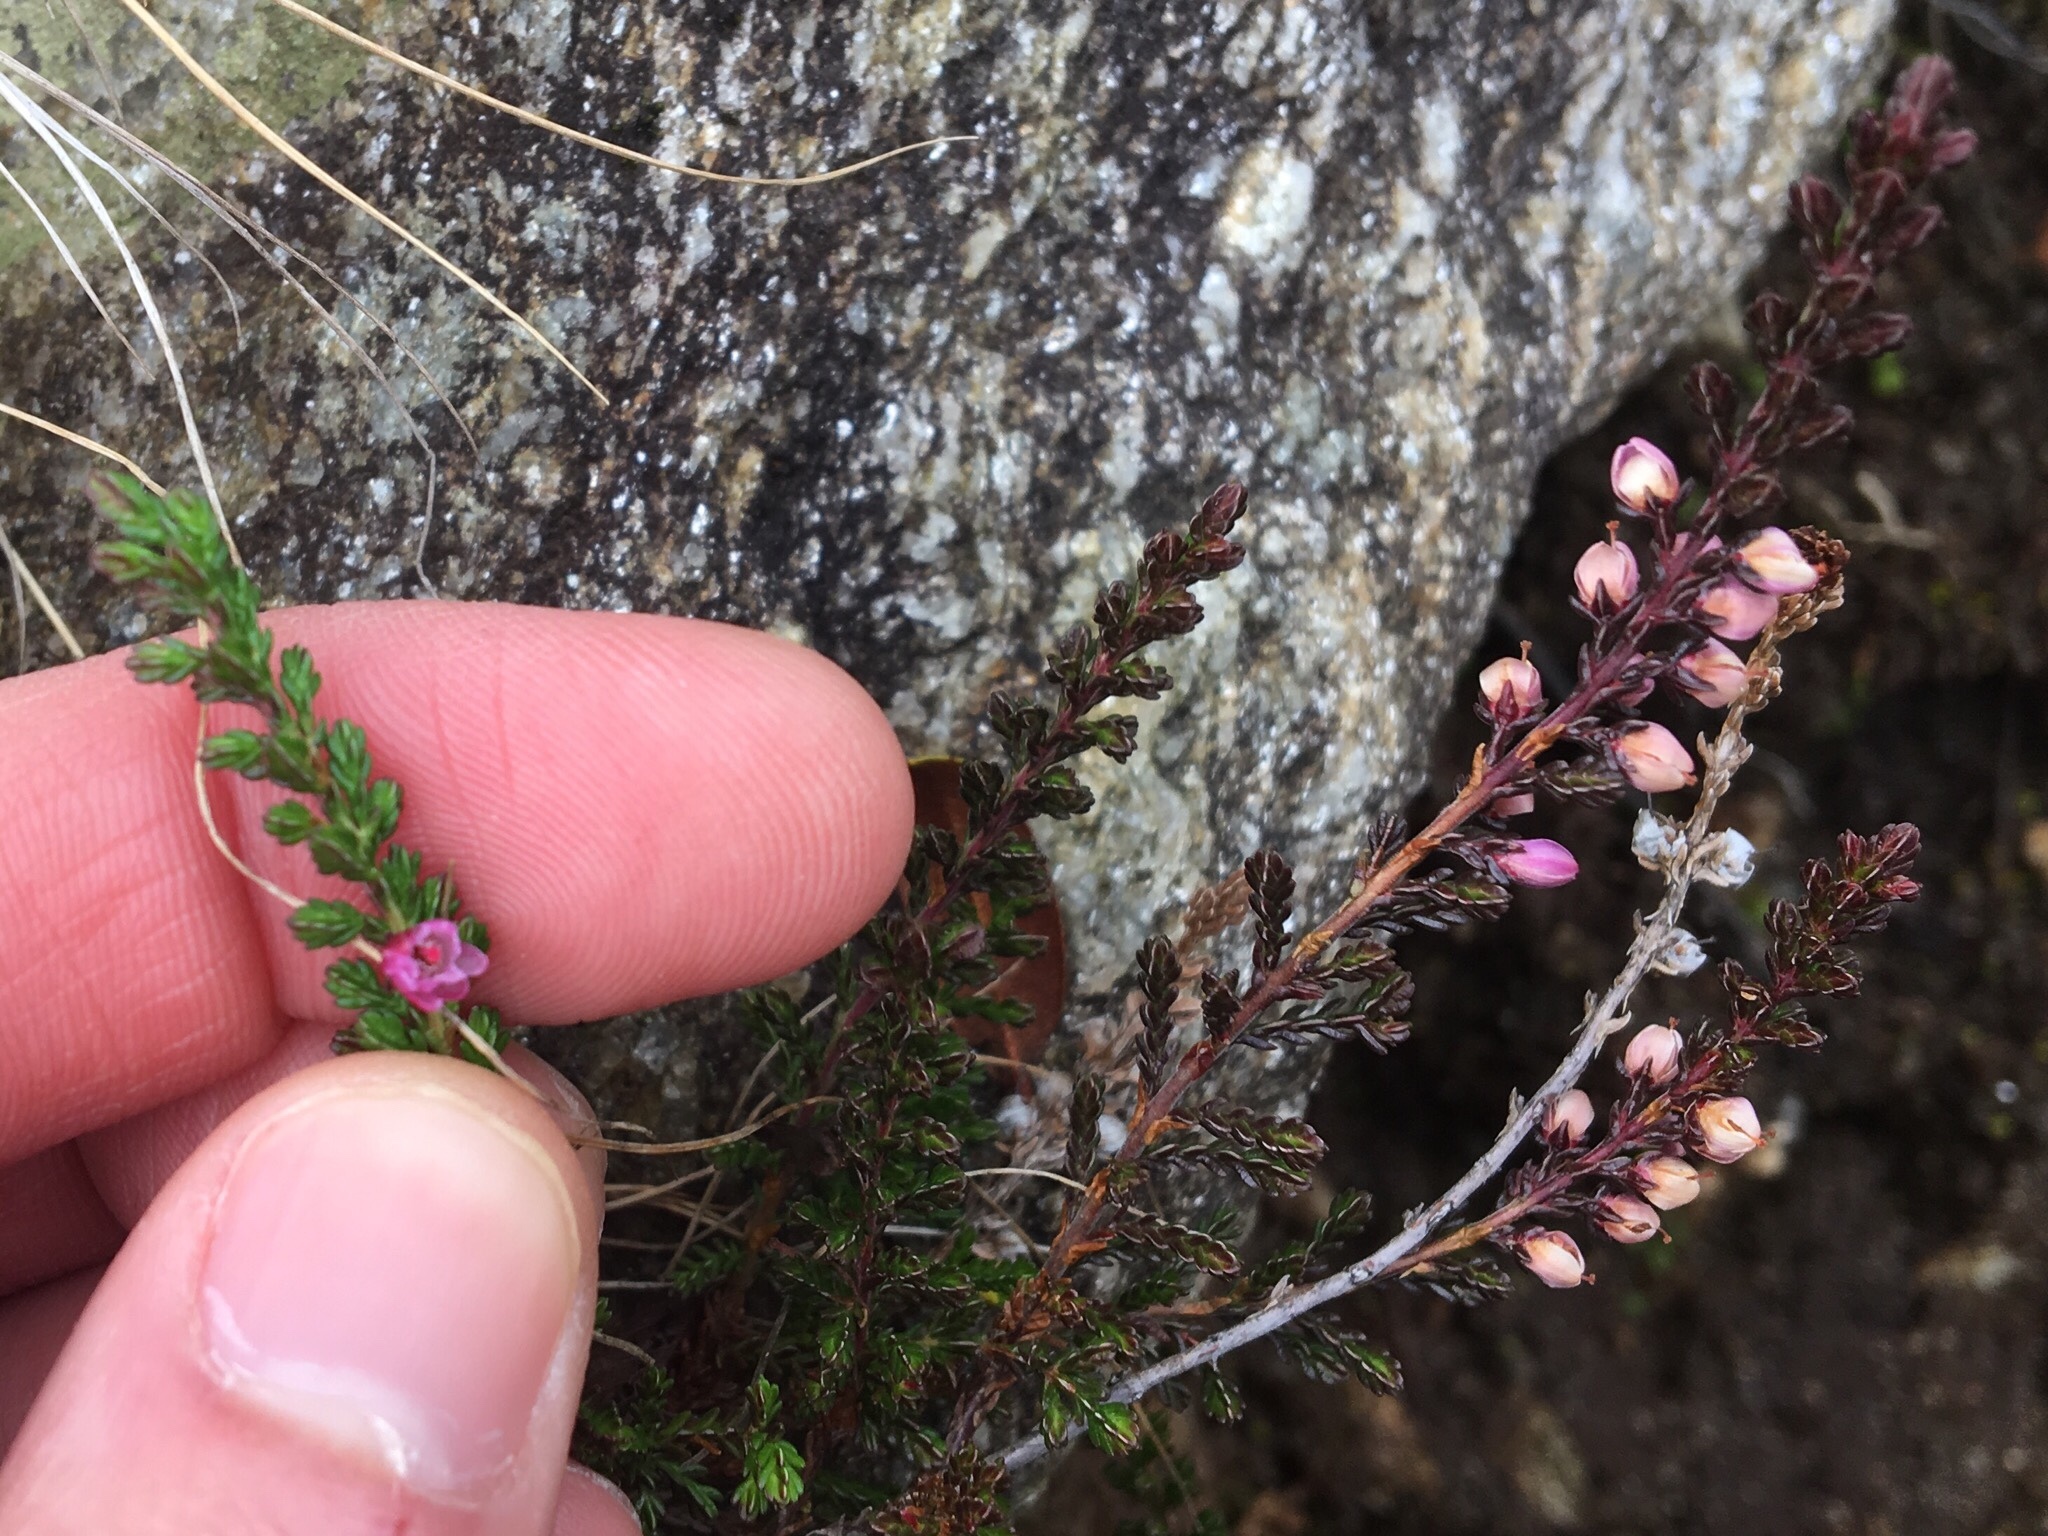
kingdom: Plantae
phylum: Tracheophyta
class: Magnoliopsida
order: Ericales
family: Ericaceae
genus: Calluna
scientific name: Calluna vulgaris
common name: Heather
